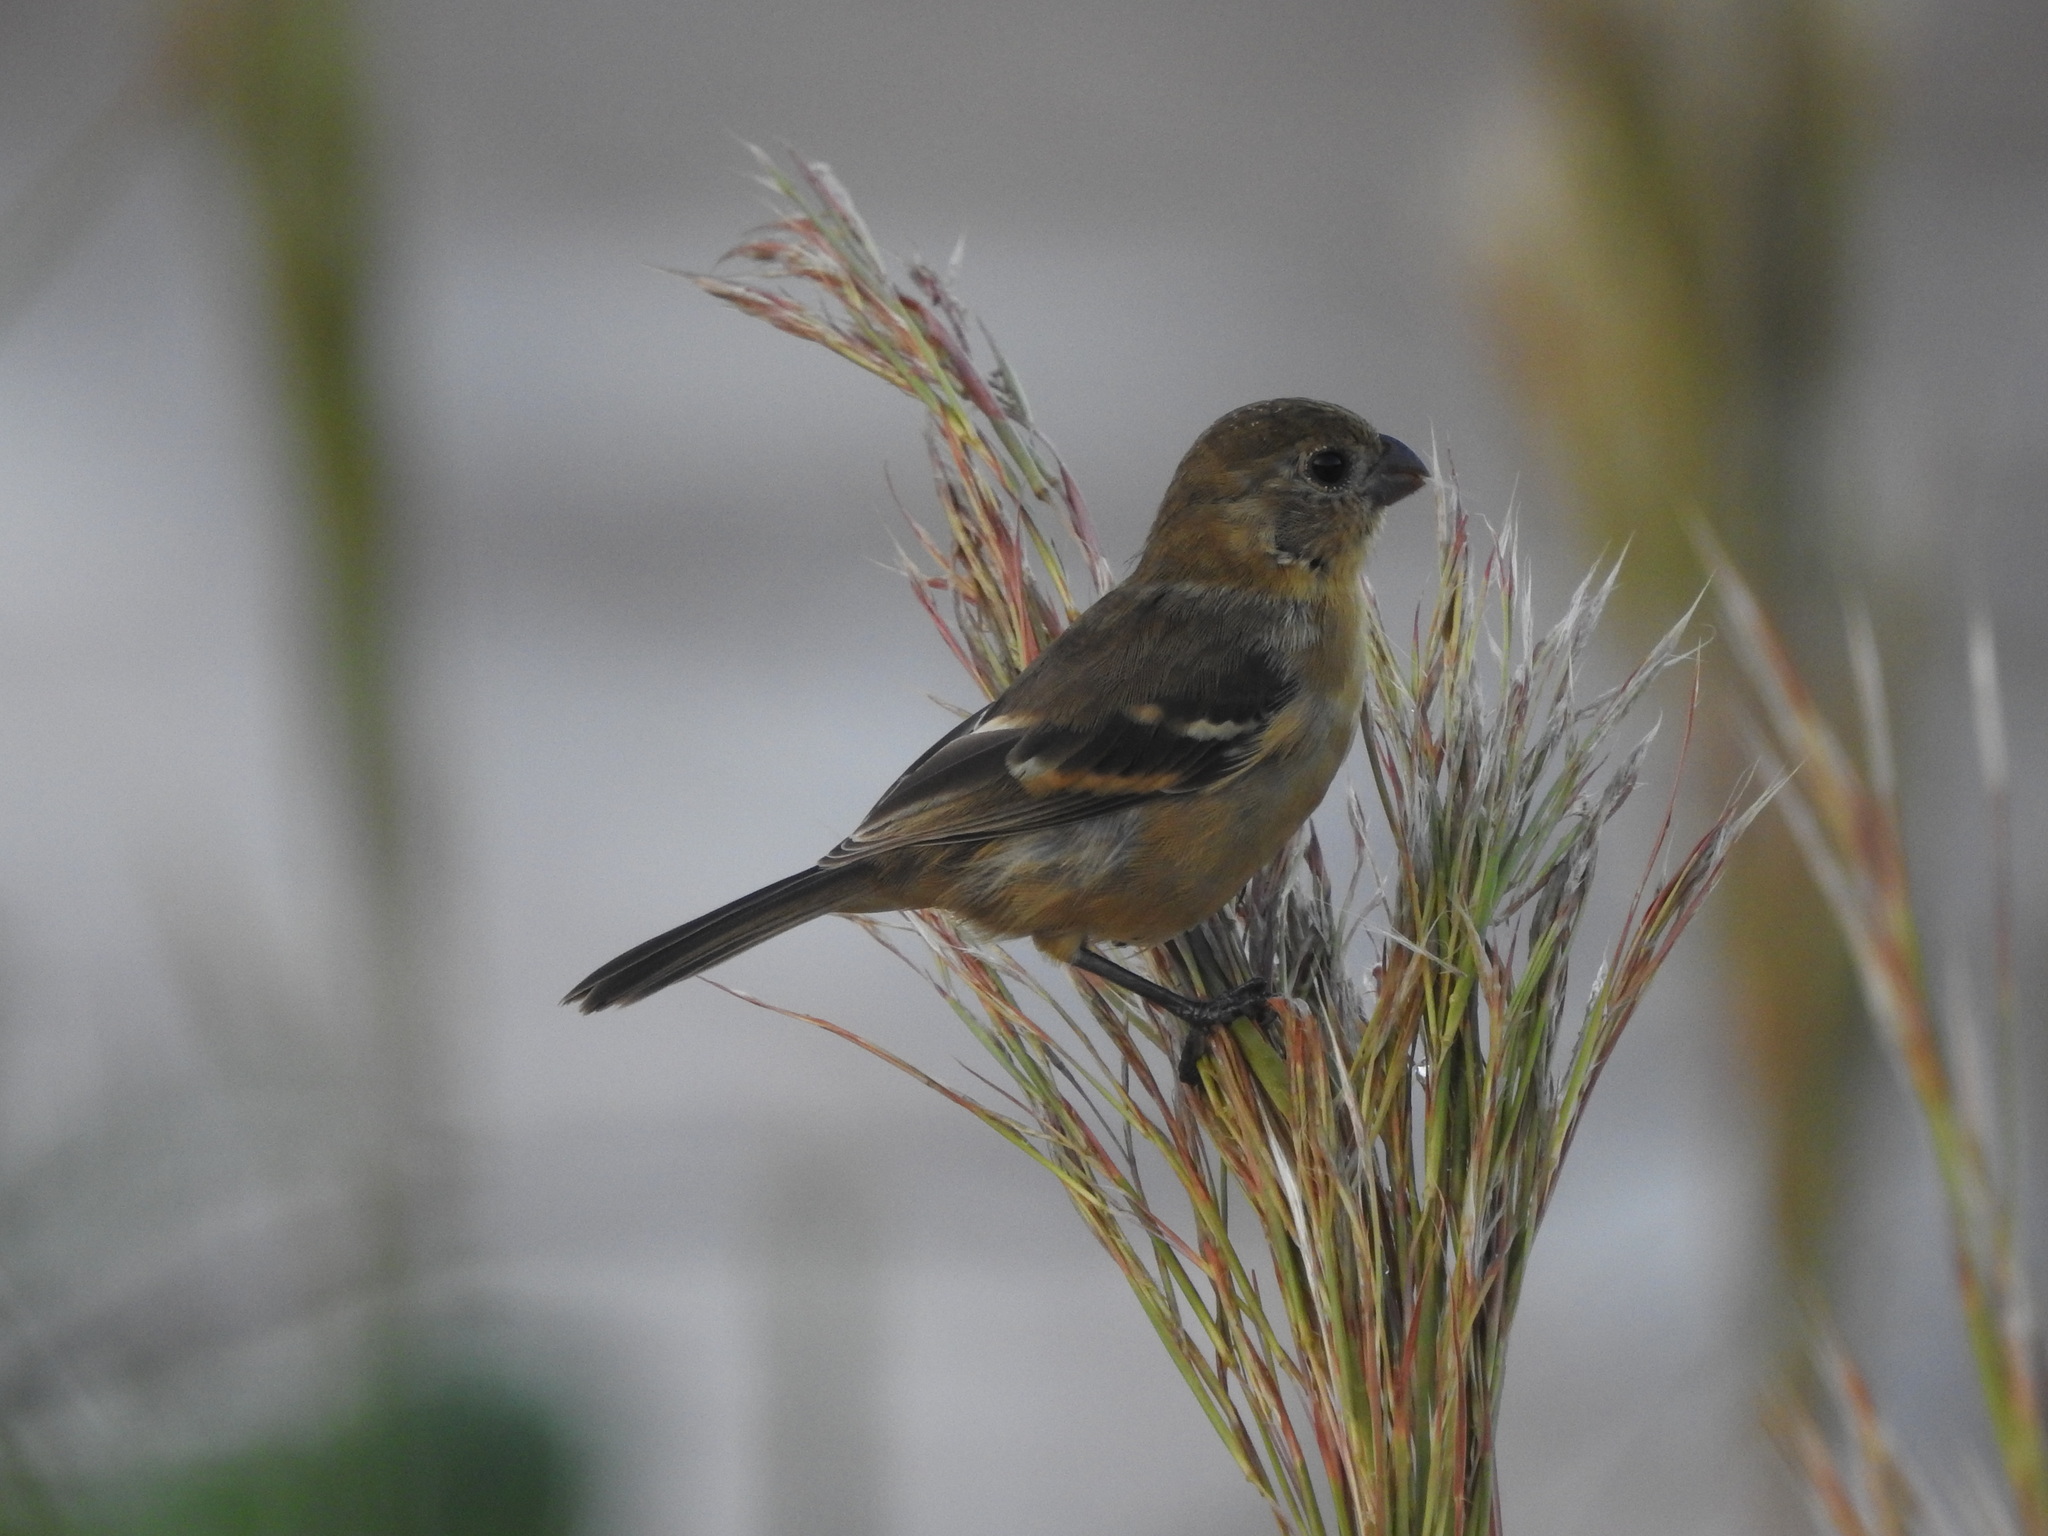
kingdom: Animalia
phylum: Chordata
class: Aves
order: Passeriformes
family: Thraupidae
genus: Sporophila
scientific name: Sporophila morelleti
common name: Morelet's seedeater
